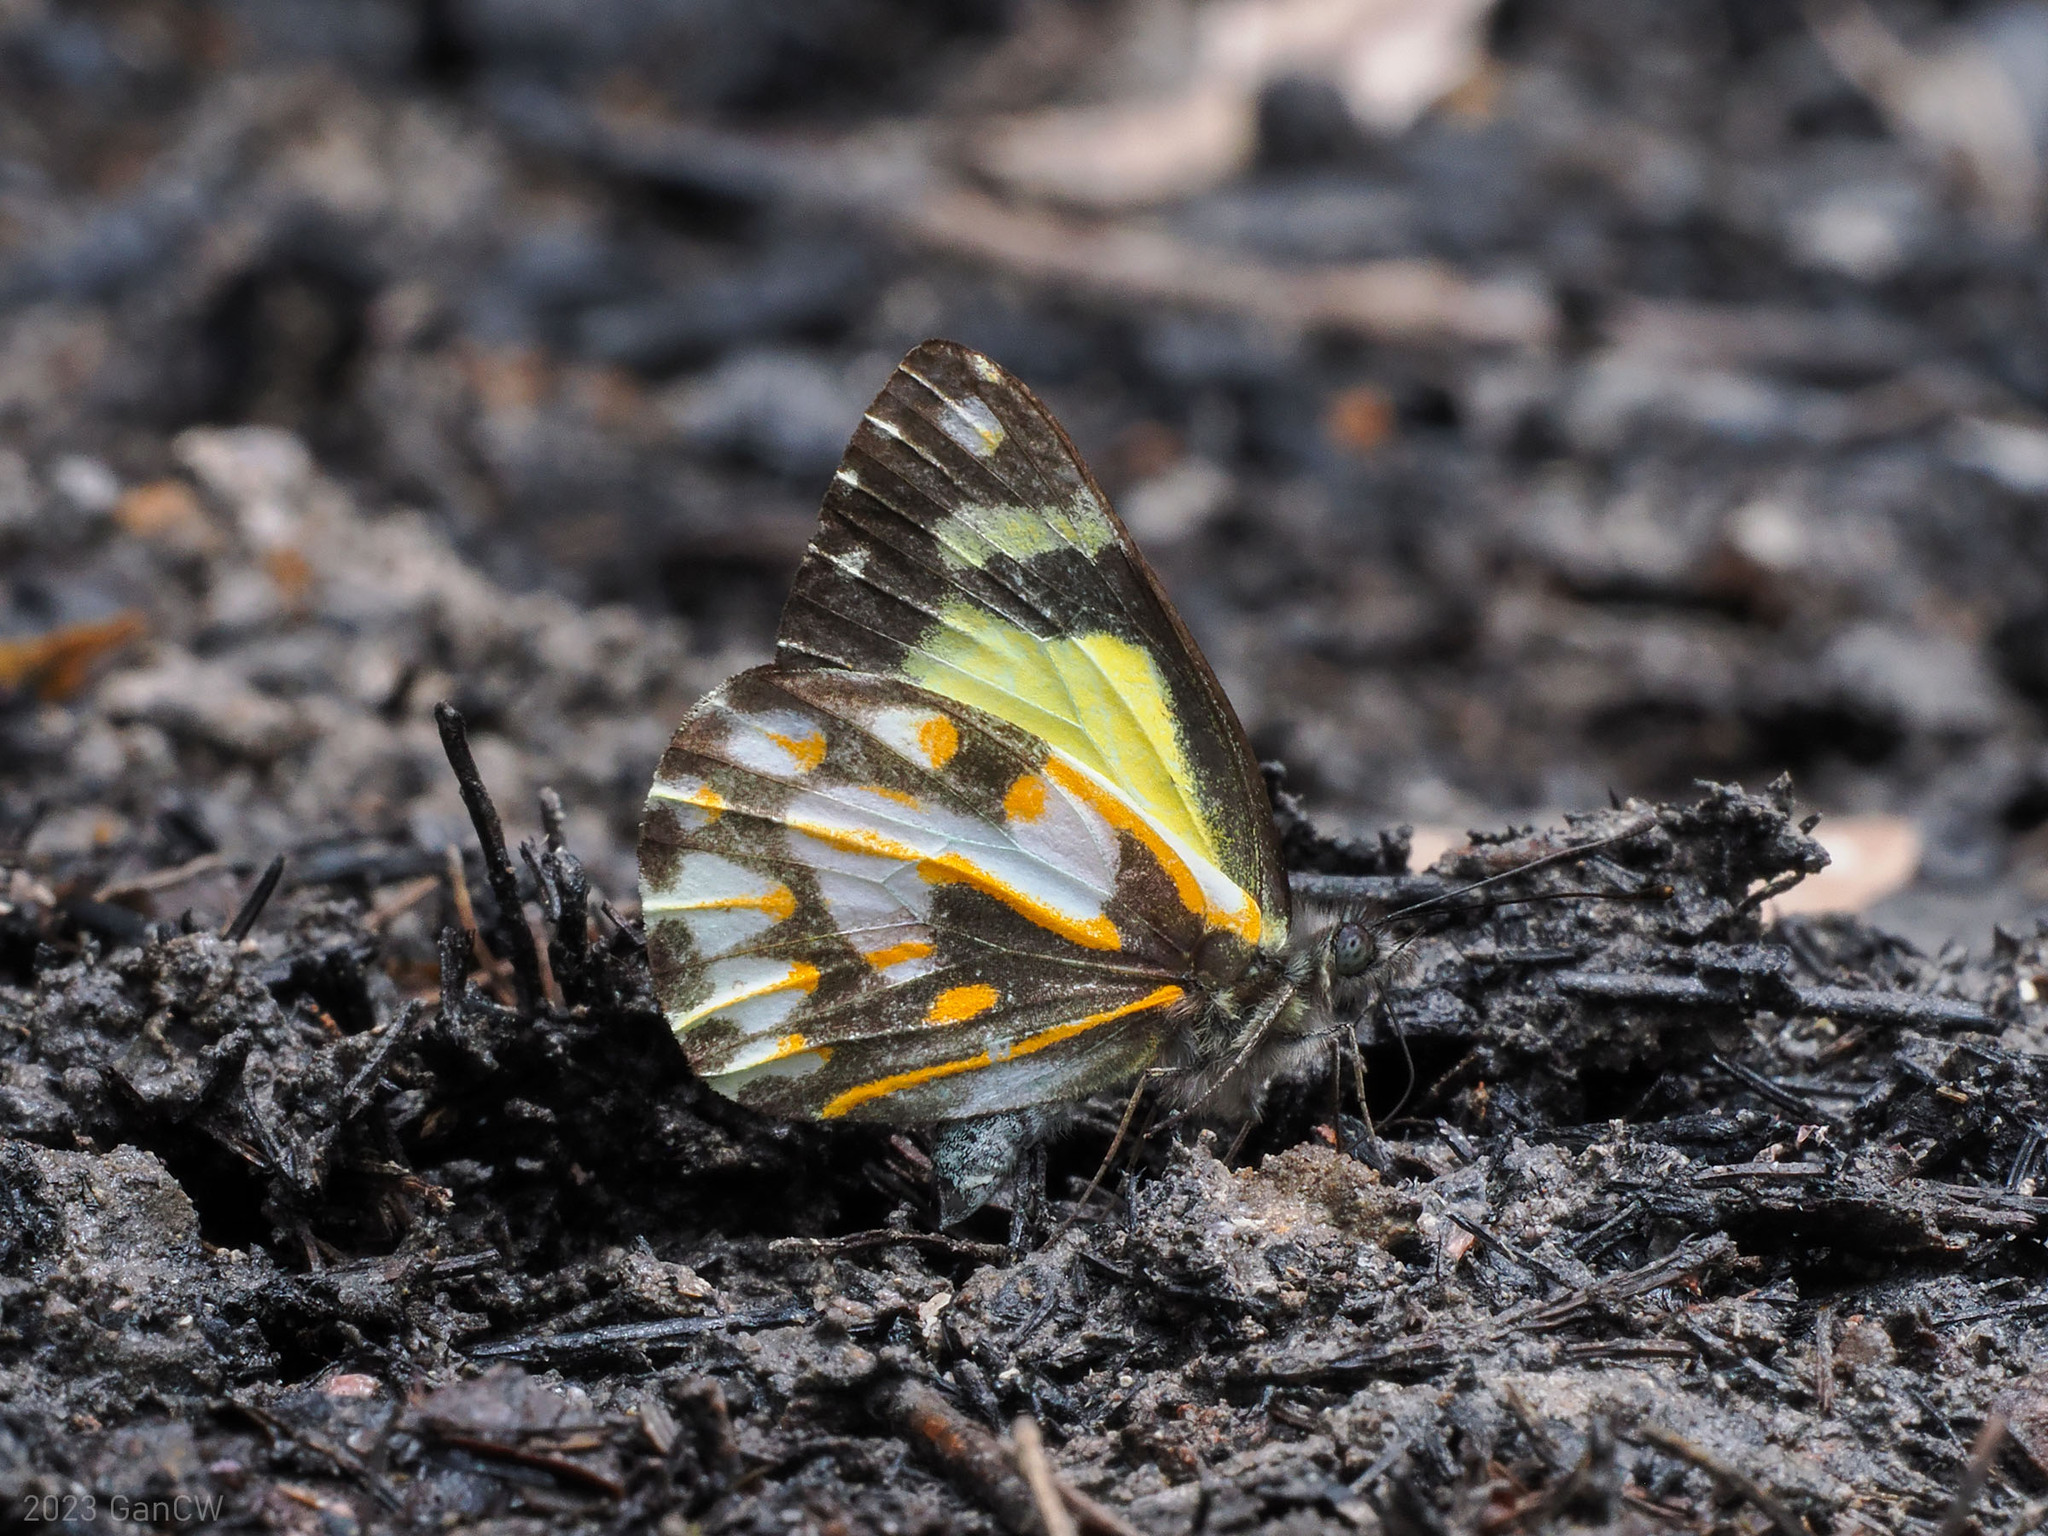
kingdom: Animalia
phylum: Arthropoda
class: Insecta
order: Lepidoptera
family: Pieridae
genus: Delias
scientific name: Delias catisa
